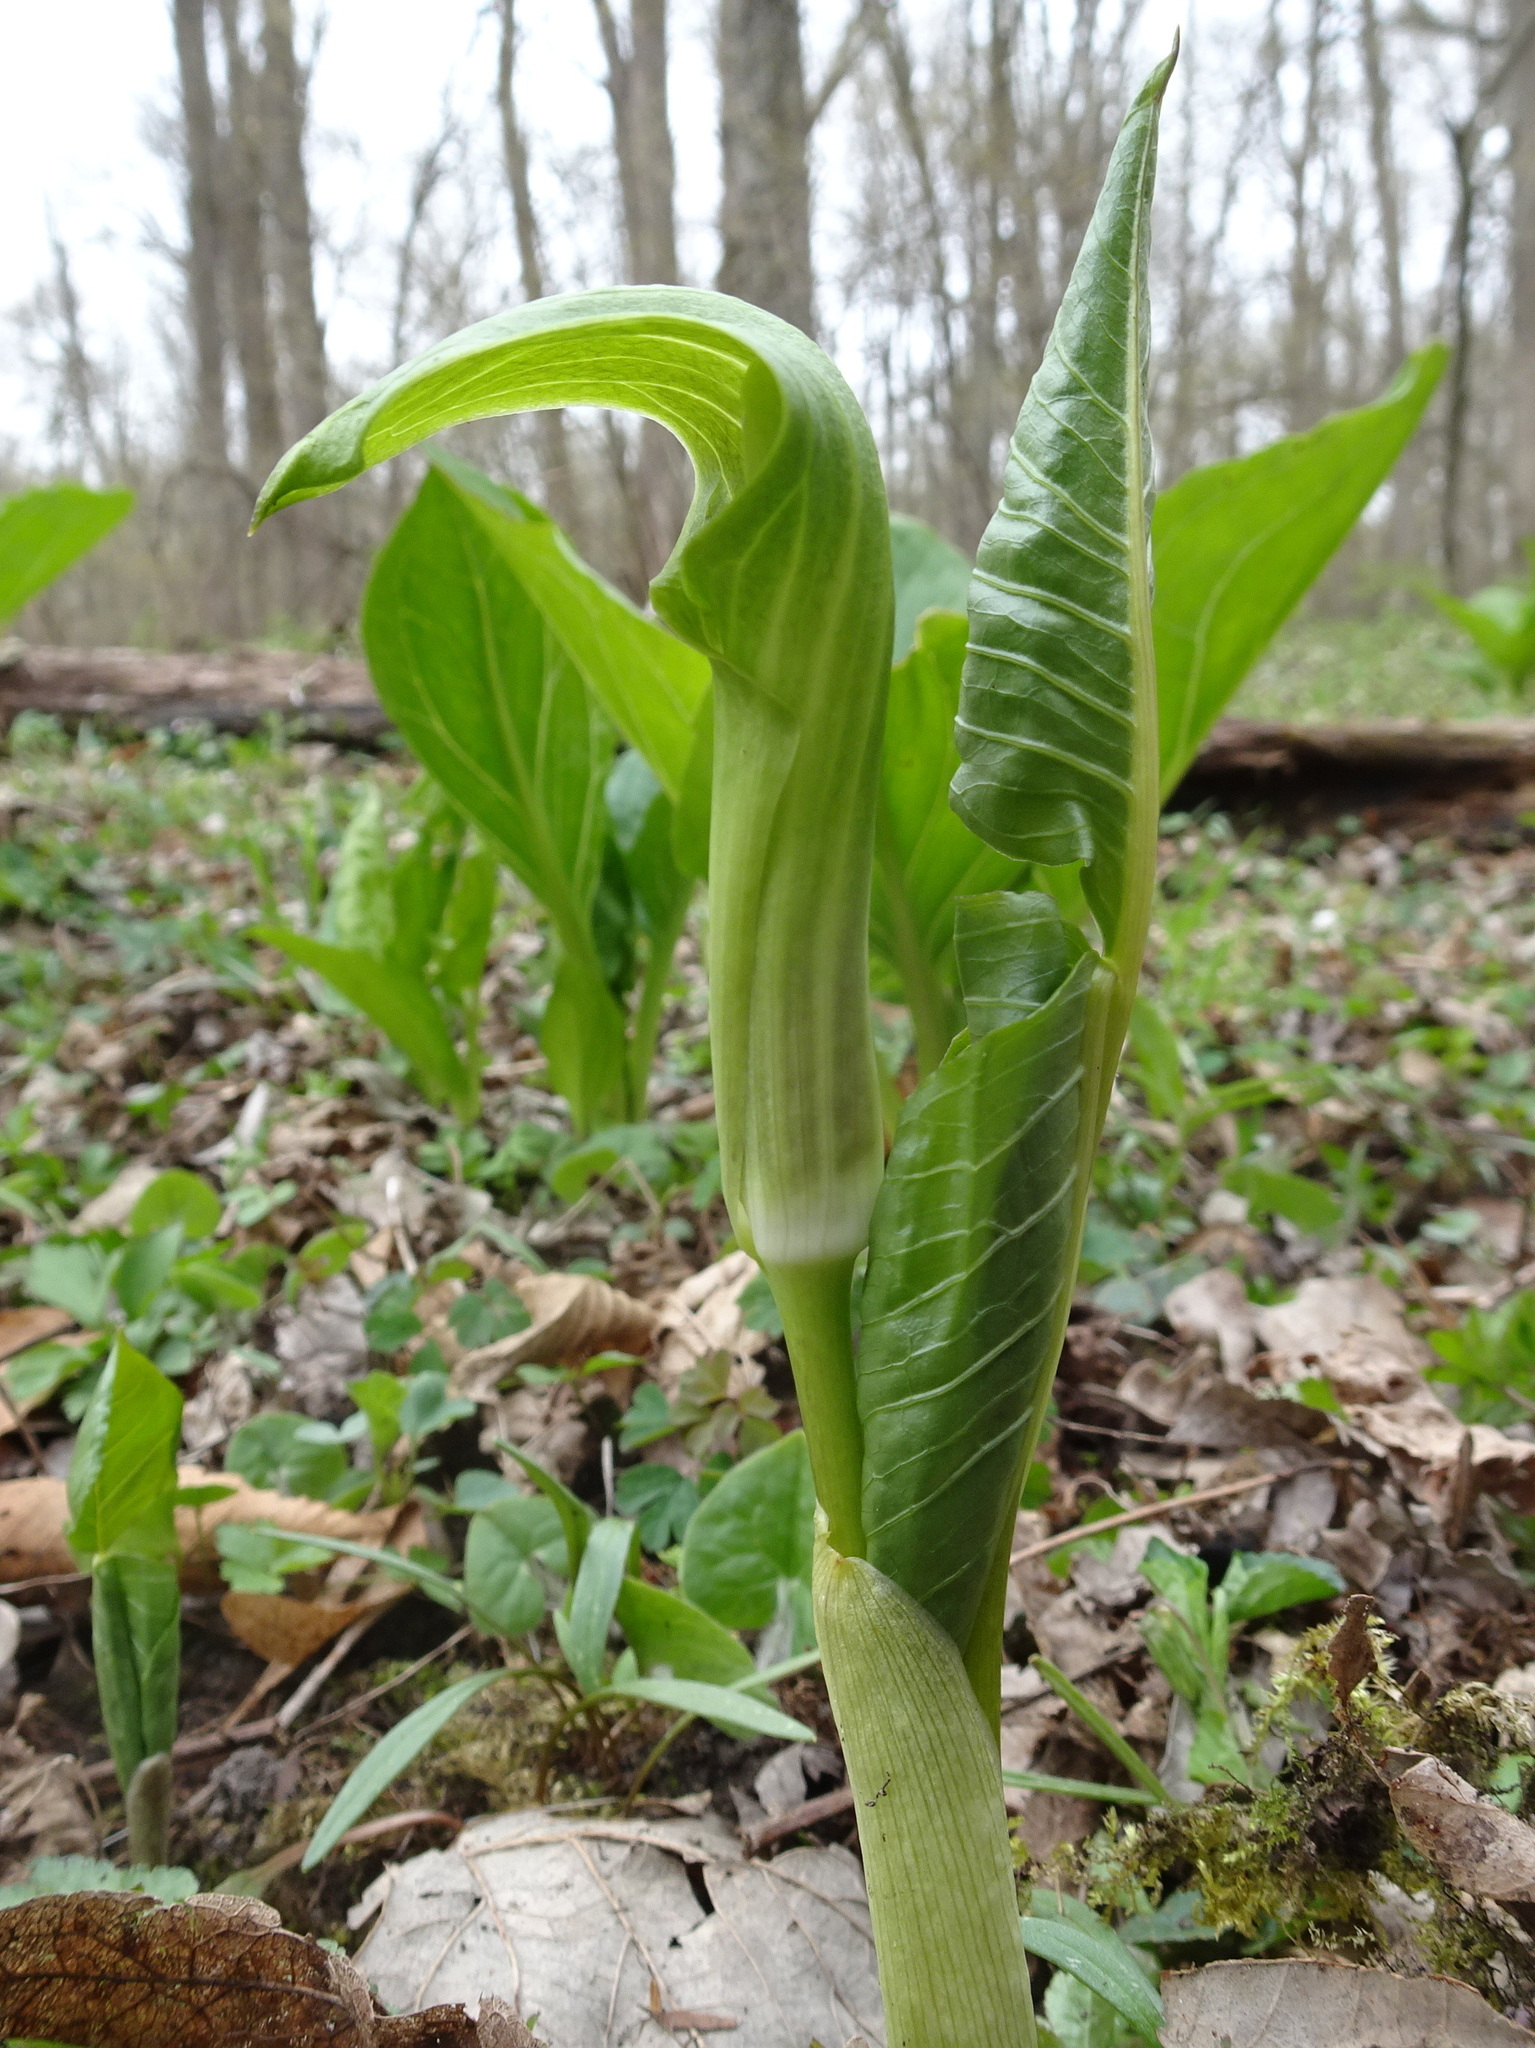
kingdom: Plantae
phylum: Tracheophyta
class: Liliopsida
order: Alismatales
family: Araceae
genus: Arisaema
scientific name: Arisaema triphyllum
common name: Jack-in-the-pulpit
